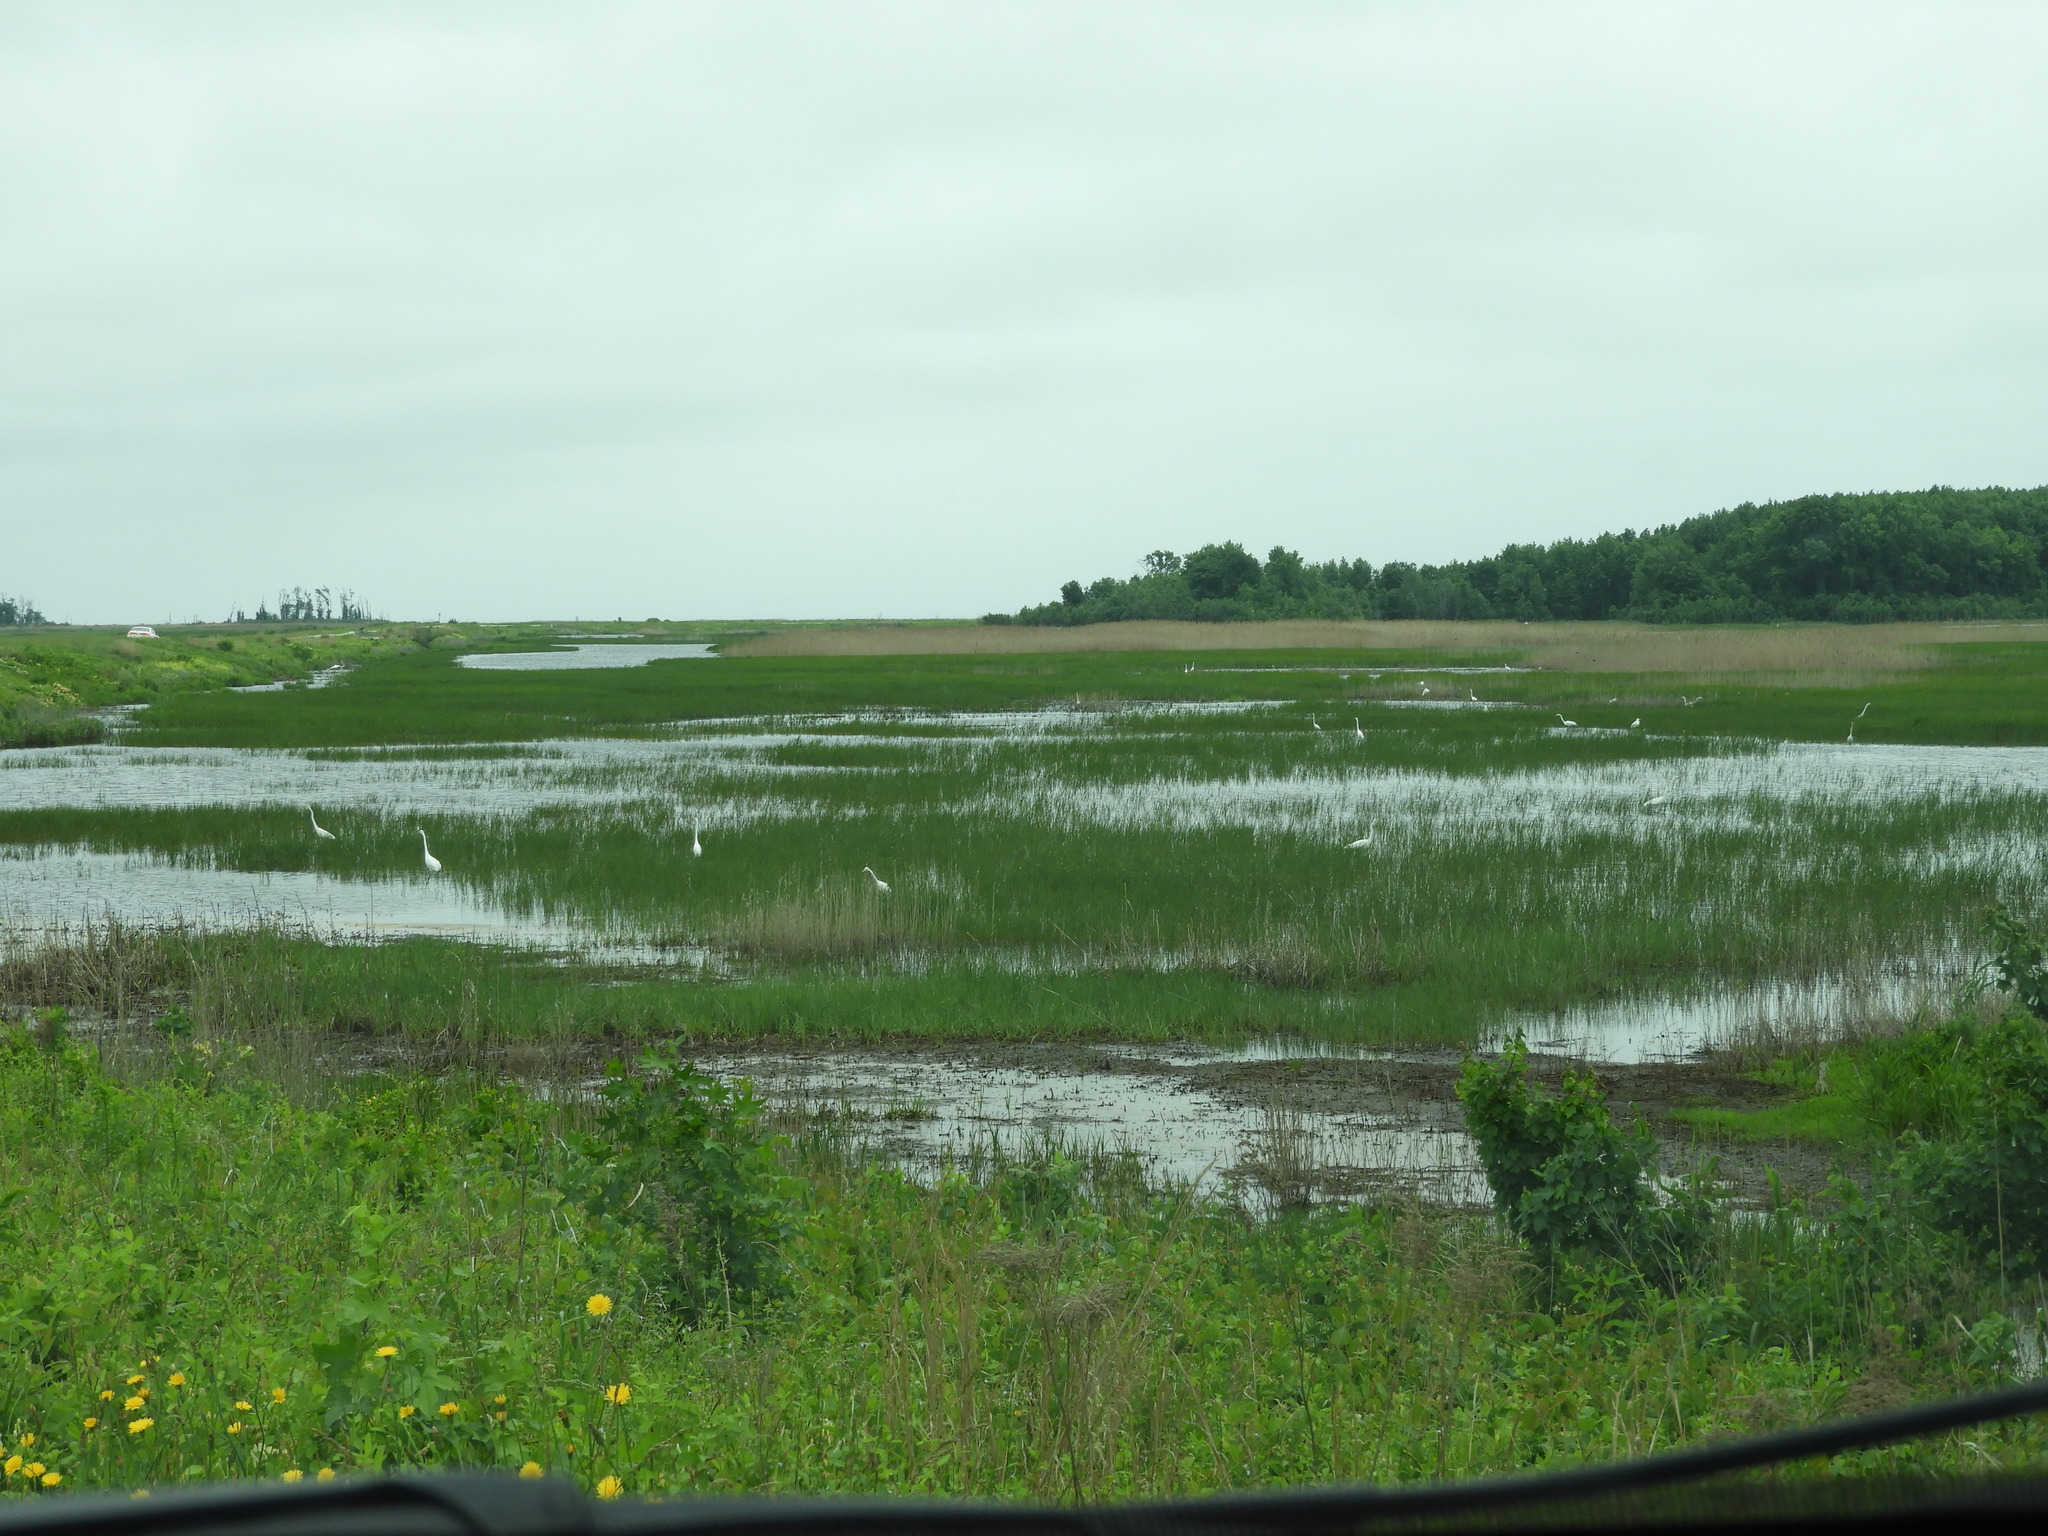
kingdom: Animalia
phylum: Chordata
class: Aves
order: Pelecaniformes
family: Ardeidae
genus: Ardea
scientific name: Ardea alba
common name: Great egret
